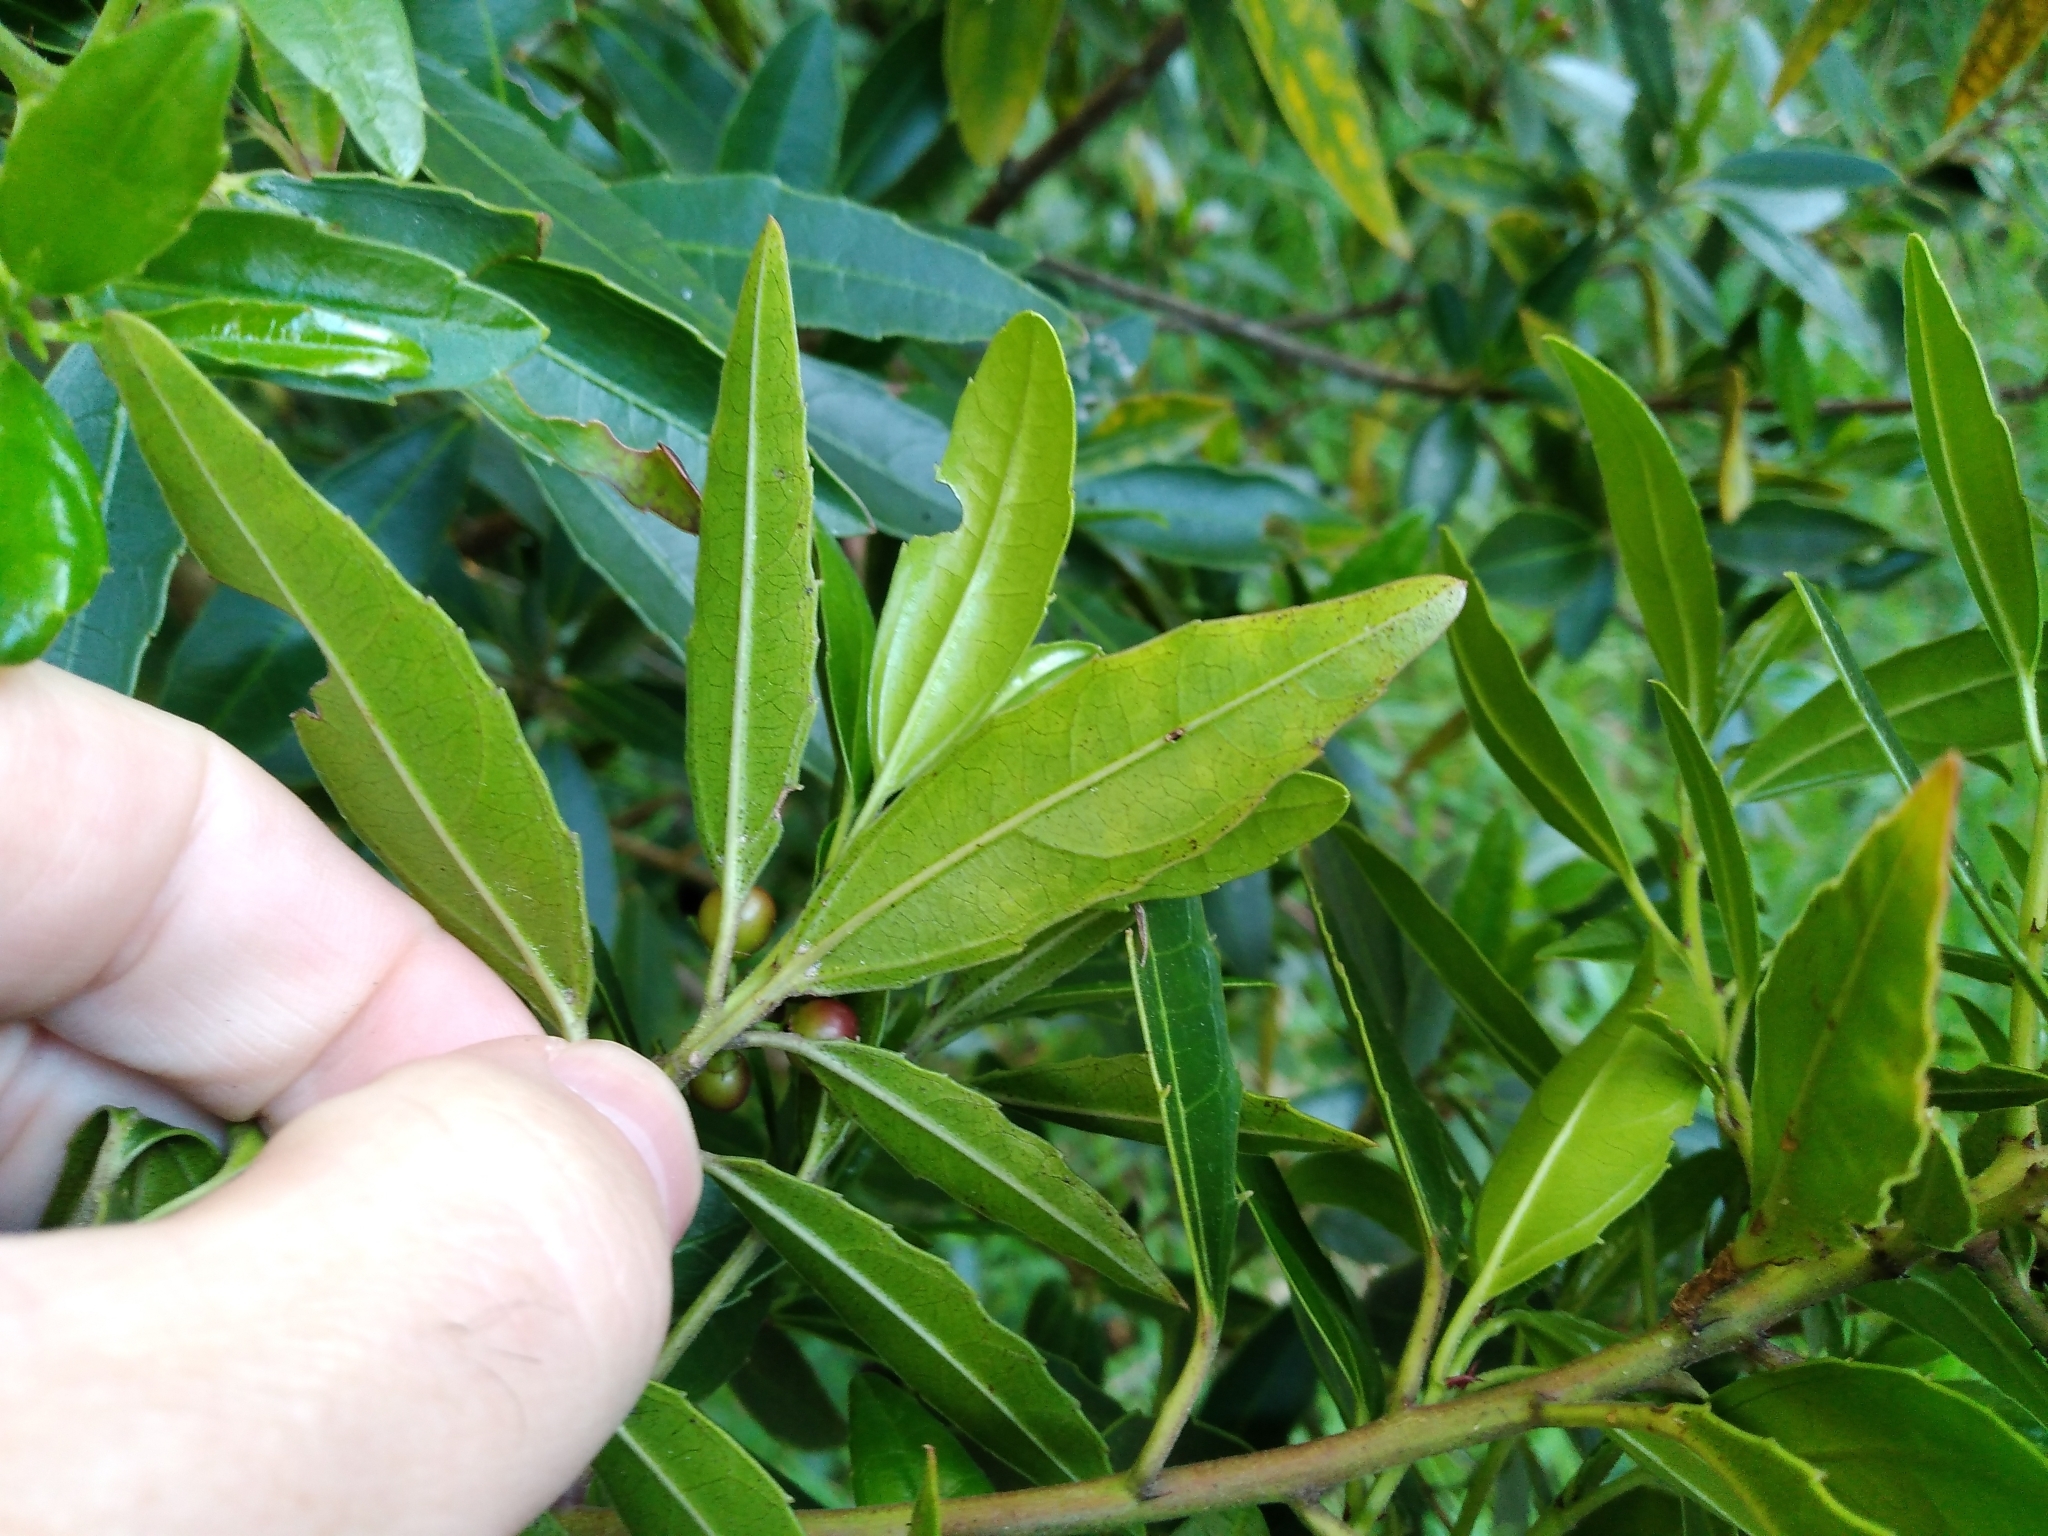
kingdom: Plantae
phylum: Tracheophyta
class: Magnoliopsida
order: Rosales
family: Rhamnaceae
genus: Rhamnus
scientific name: Rhamnus alaternus
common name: Mediterranean buckthorn
